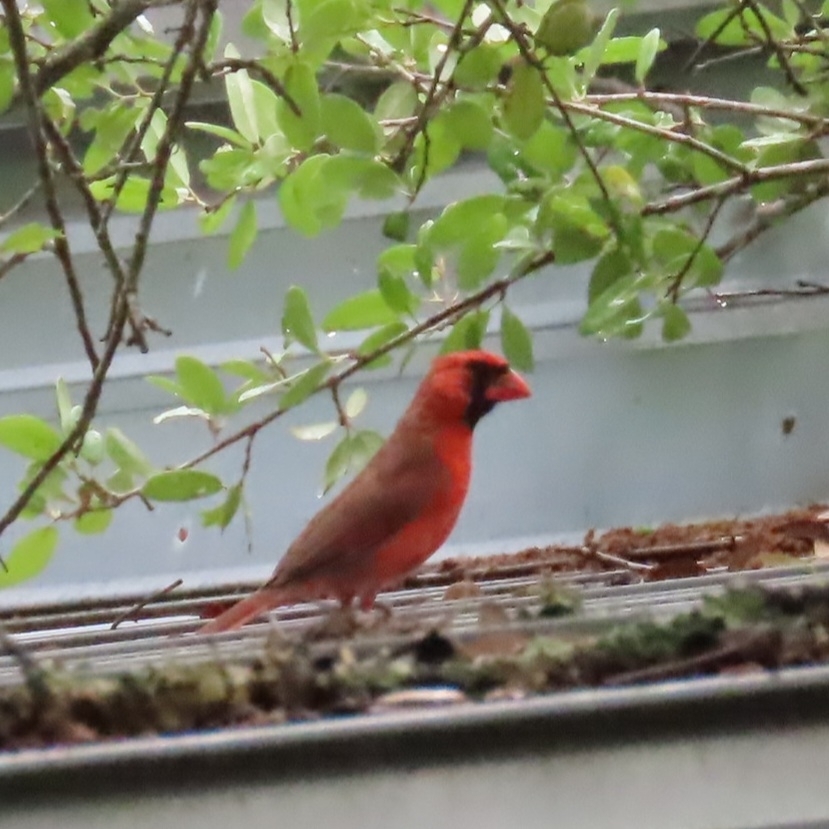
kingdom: Animalia
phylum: Chordata
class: Aves
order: Passeriformes
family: Cardinalidae
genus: Cardinalis
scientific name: Cardinalis cardinalis
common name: Northern cardinal
